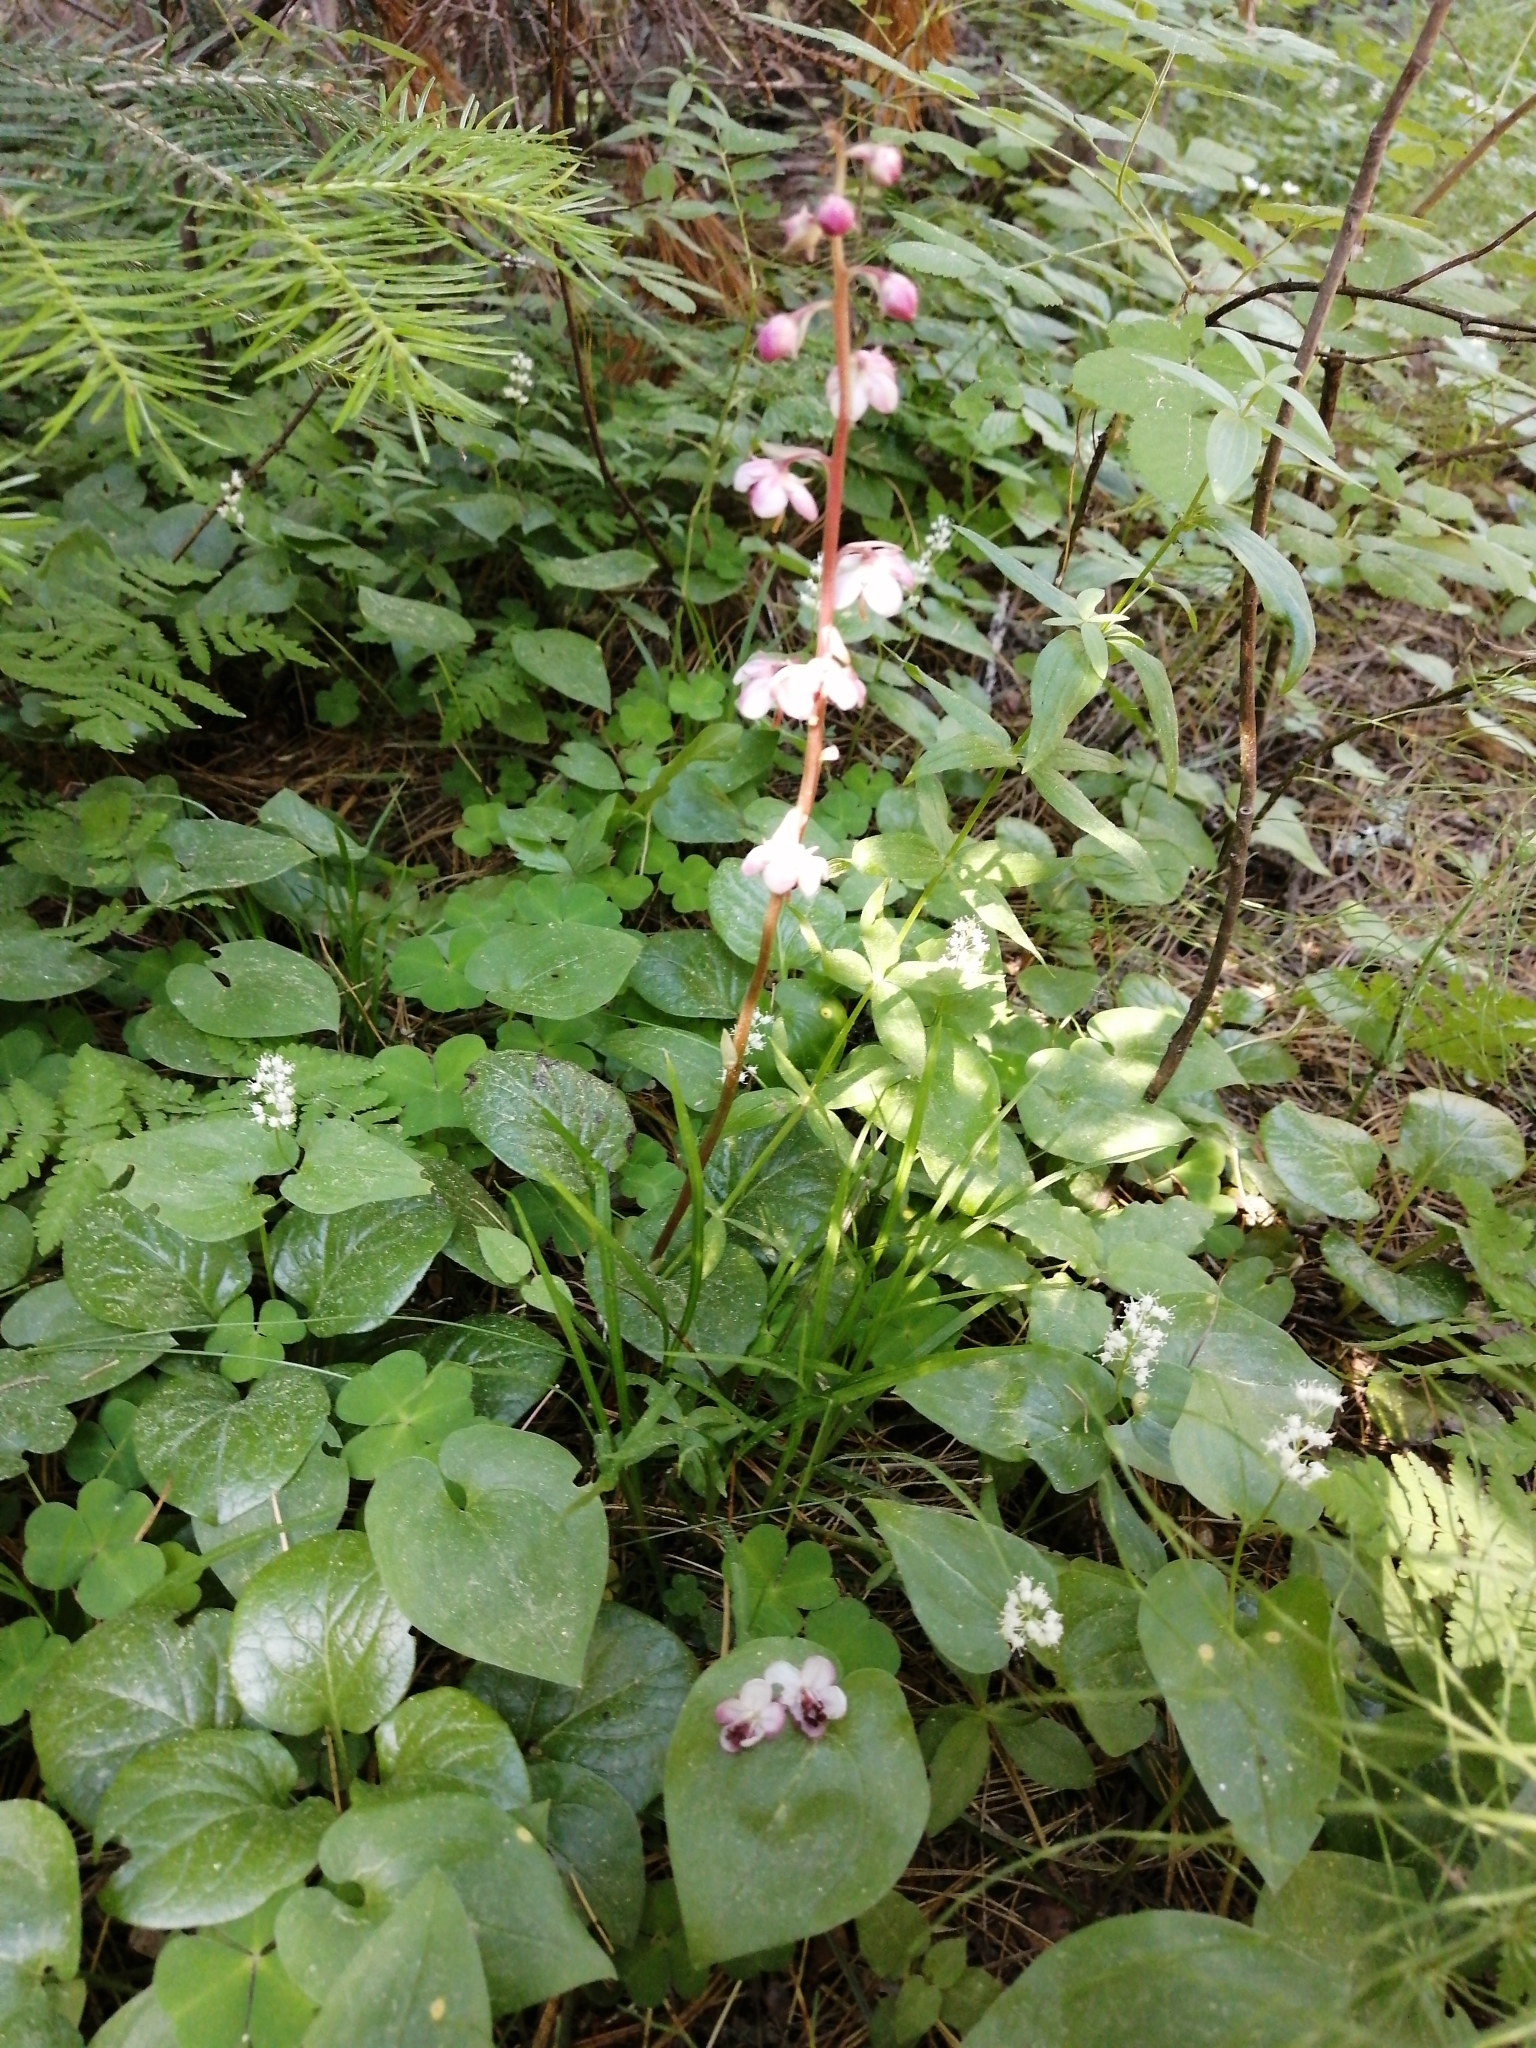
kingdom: Plantae
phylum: Tracheophyta
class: Magnoliopsida
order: Ericales
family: Ericaceae
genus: Pyrola
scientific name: Pyrola asarifolia
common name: Bog wintergreen
